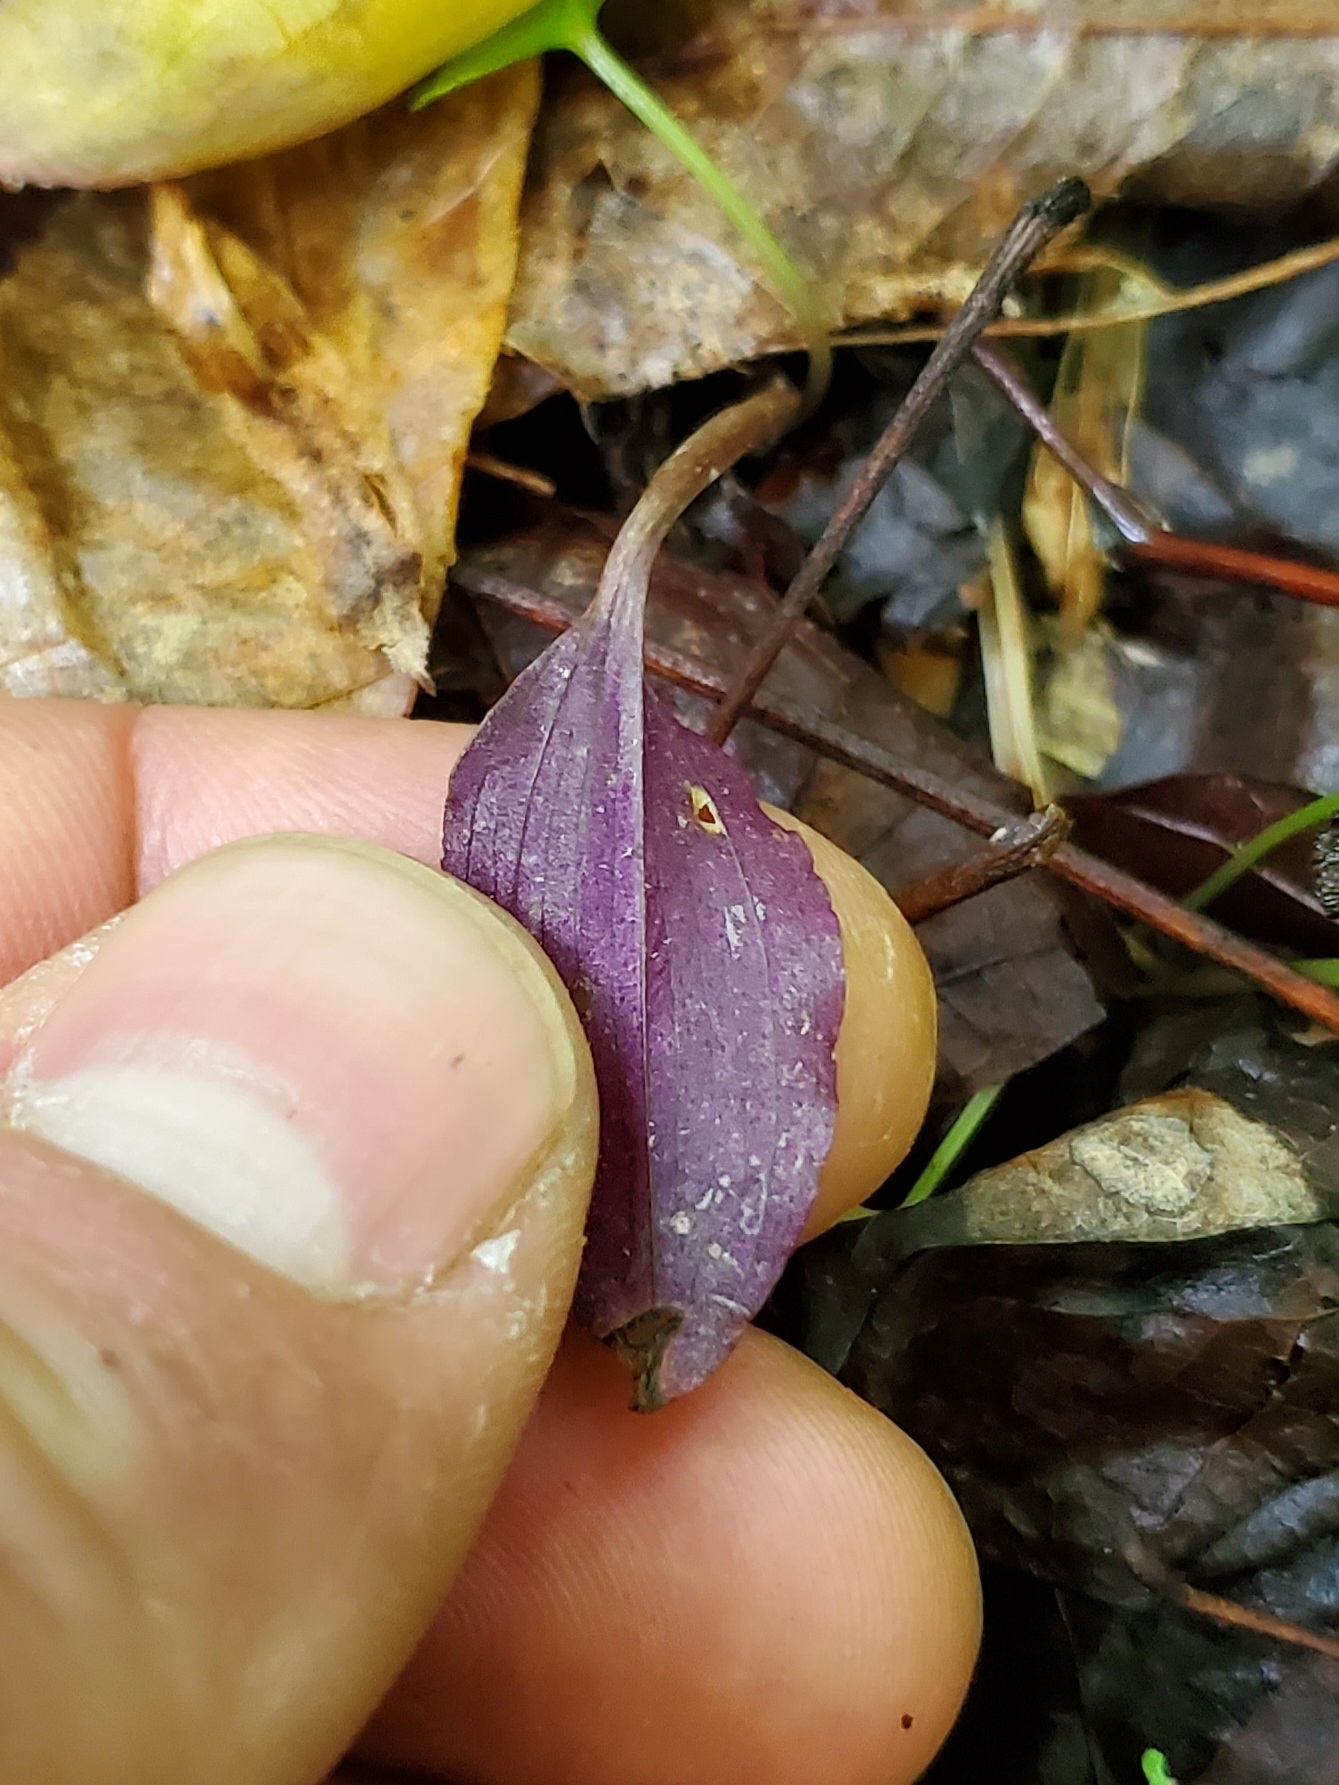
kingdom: Plantae
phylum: Tracheophyta
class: Liliopsida
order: Asparagales
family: Orchidaceae
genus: Tipularia
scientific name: Tipularia discolor
